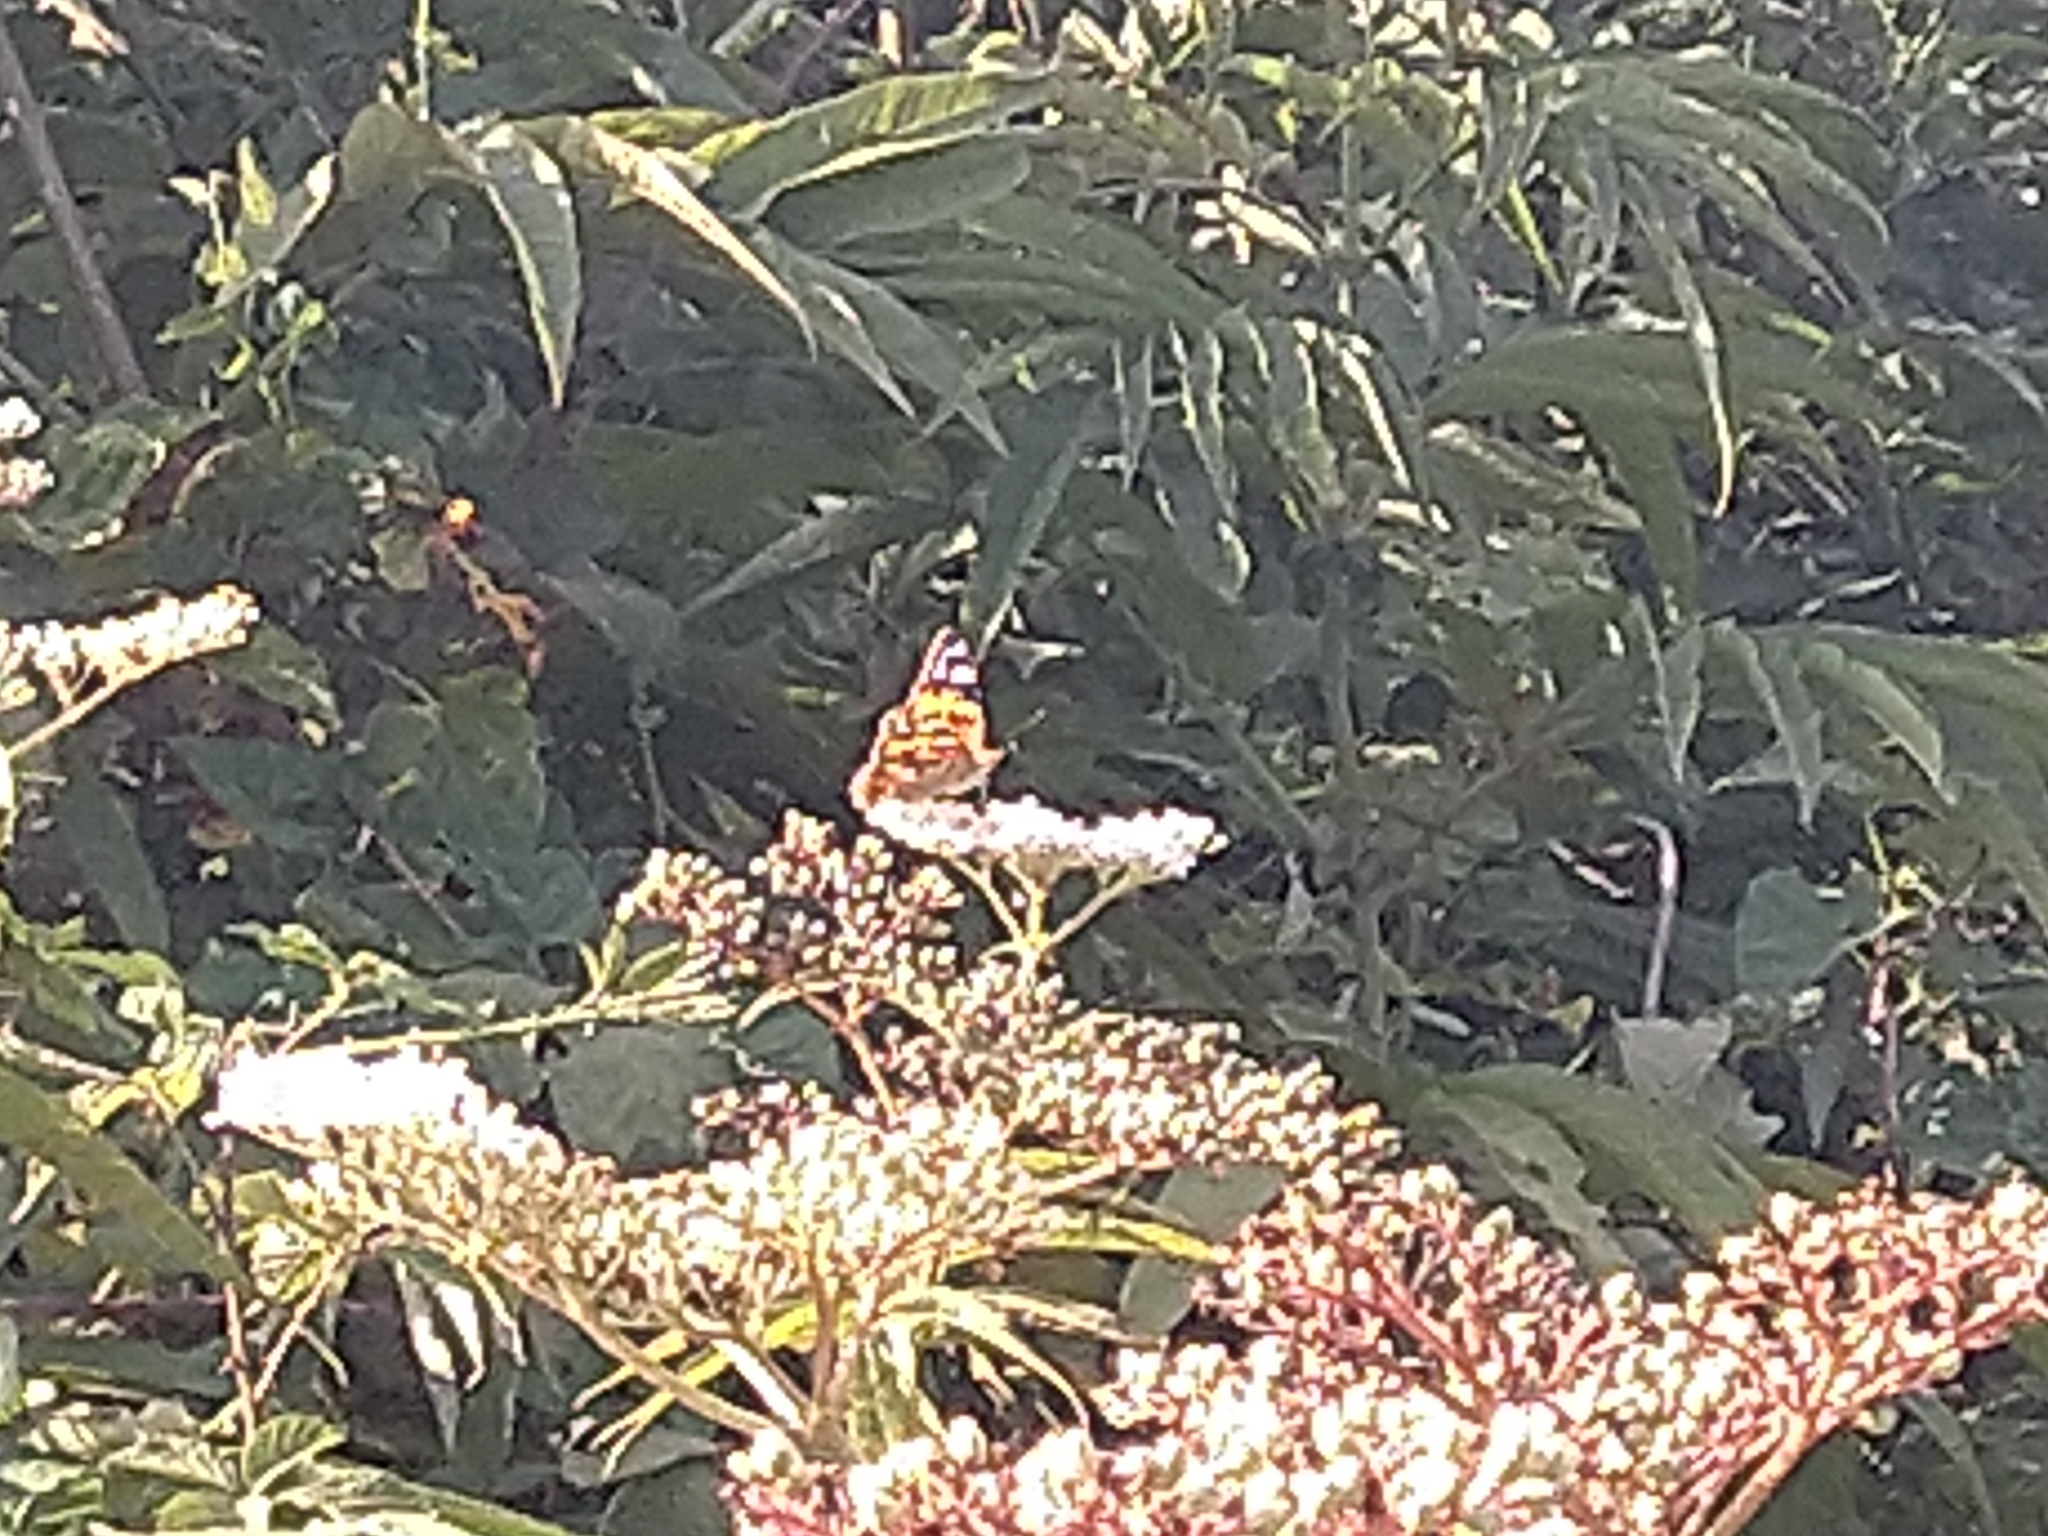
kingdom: Animalia
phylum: Arthropoda
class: Insecta
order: Lepidoptera
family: Nymphalidae
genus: Vanessa
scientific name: Vanessa cardui
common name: Painted lady
